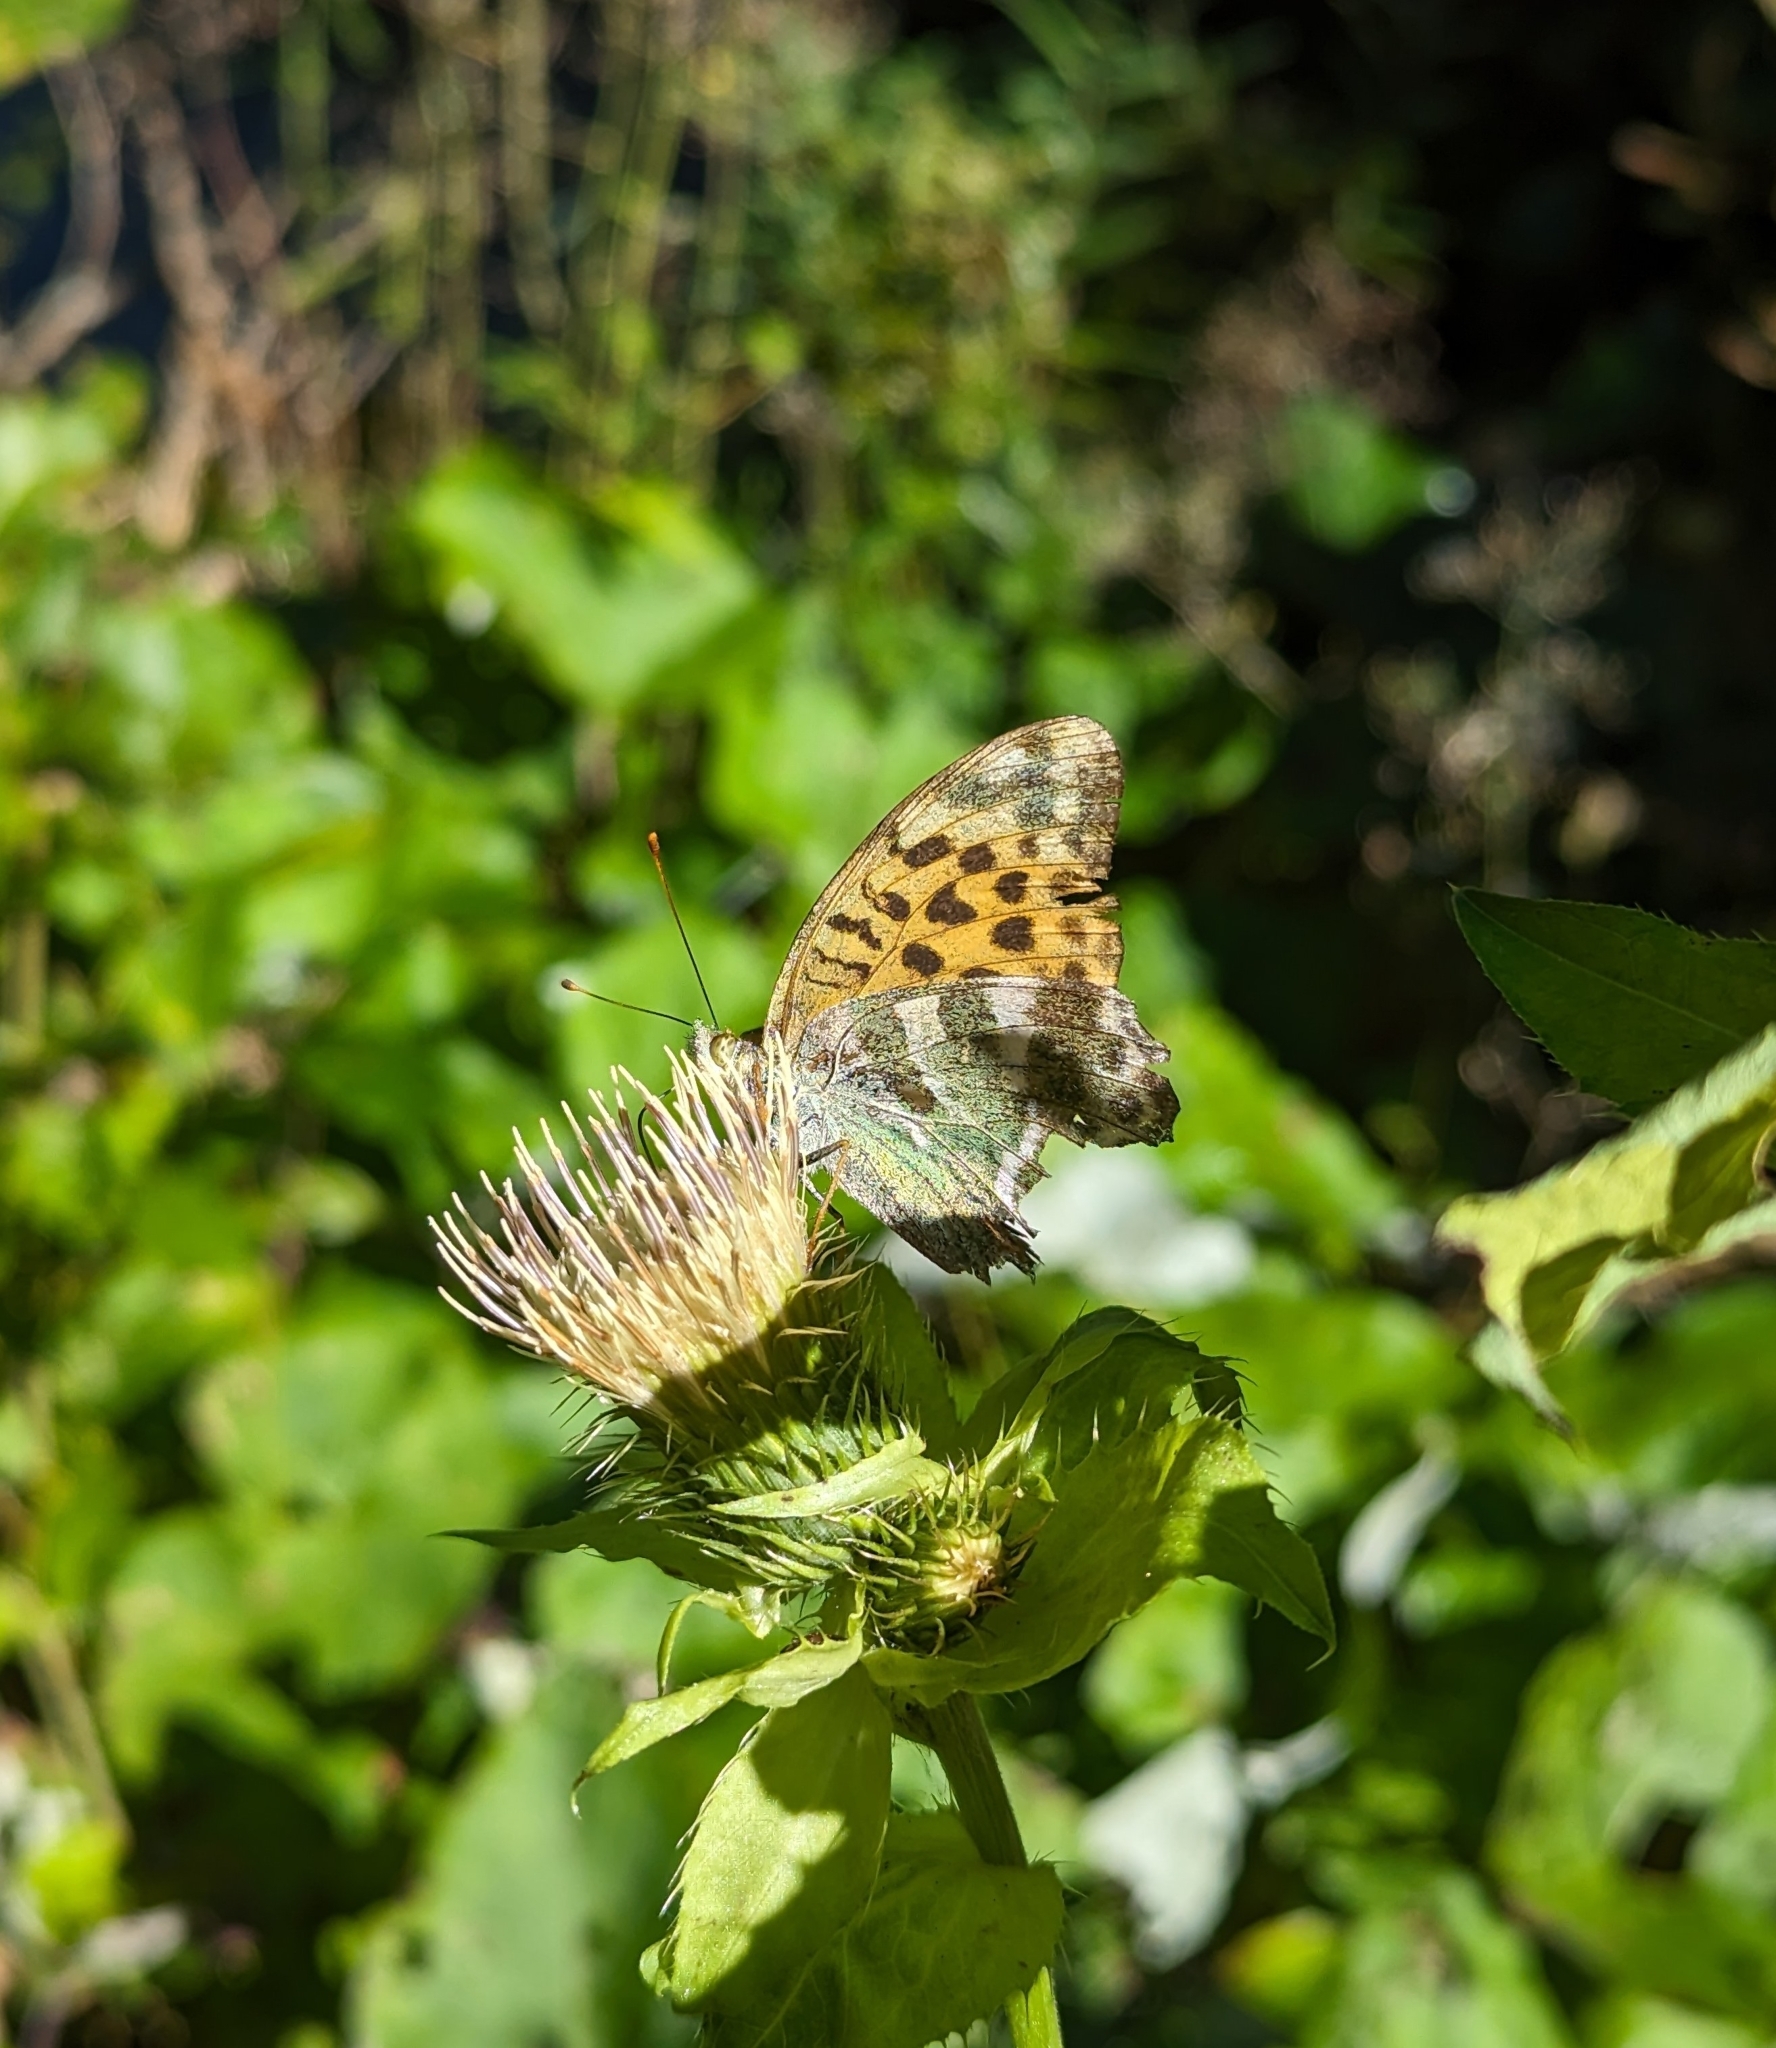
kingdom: Animalia
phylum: Arthropoda
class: Insecta
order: Lepidoptera
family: Nymphalidae
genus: Argynnis
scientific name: Argynnis paphia
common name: Silver-washed fritillary
